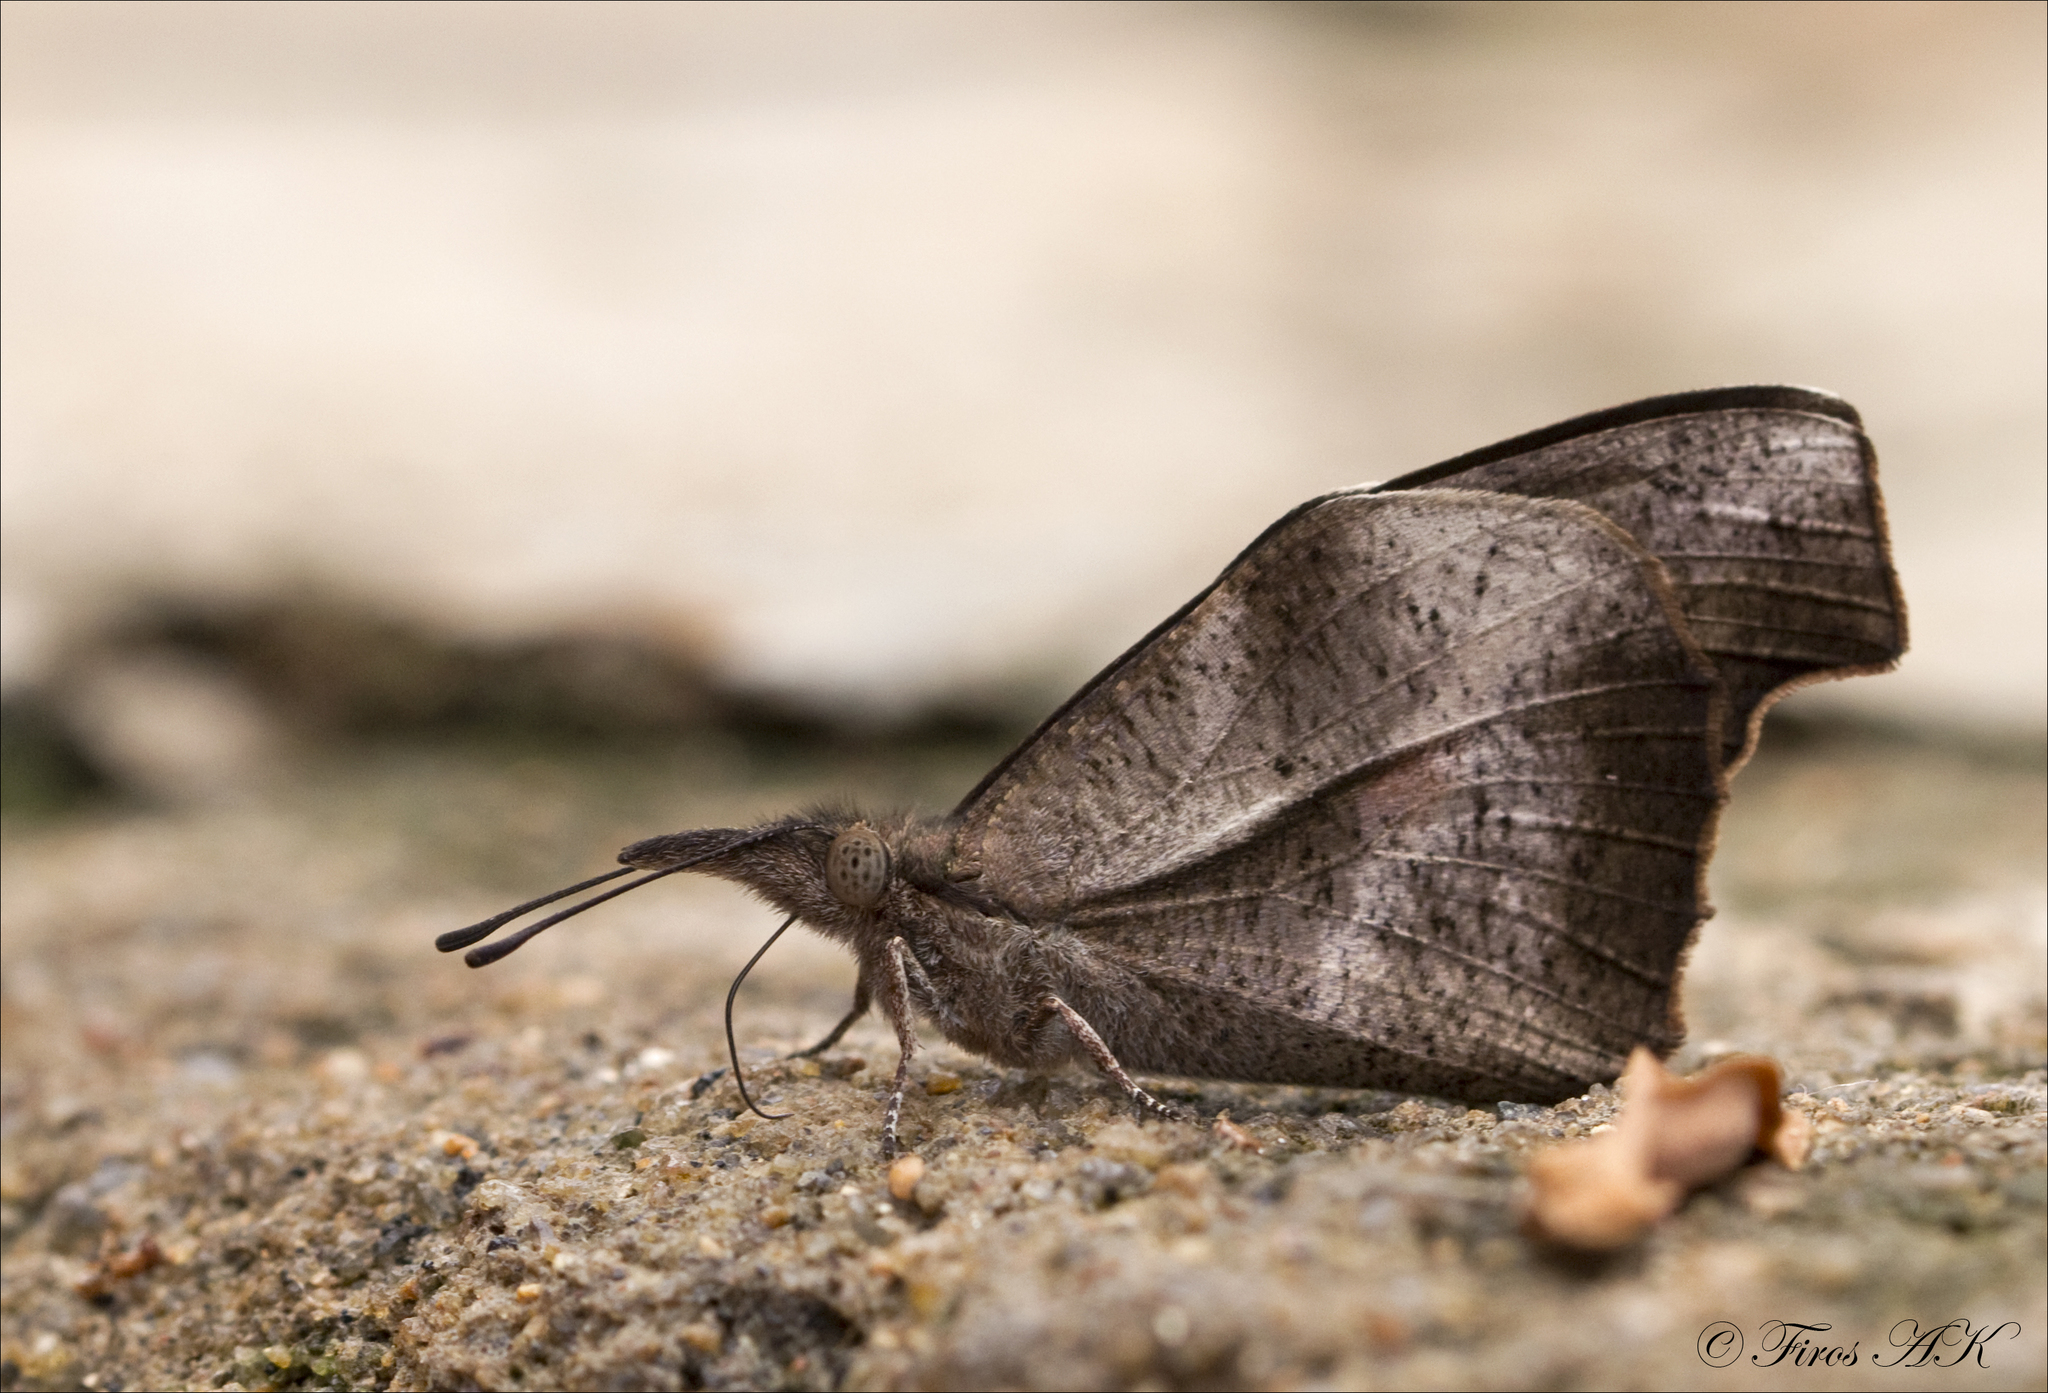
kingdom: Animalia
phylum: Arthropoda
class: Insecta
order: Lepidoptera
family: Nymphalidae
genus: Libythea
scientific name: Libythea myrrha
